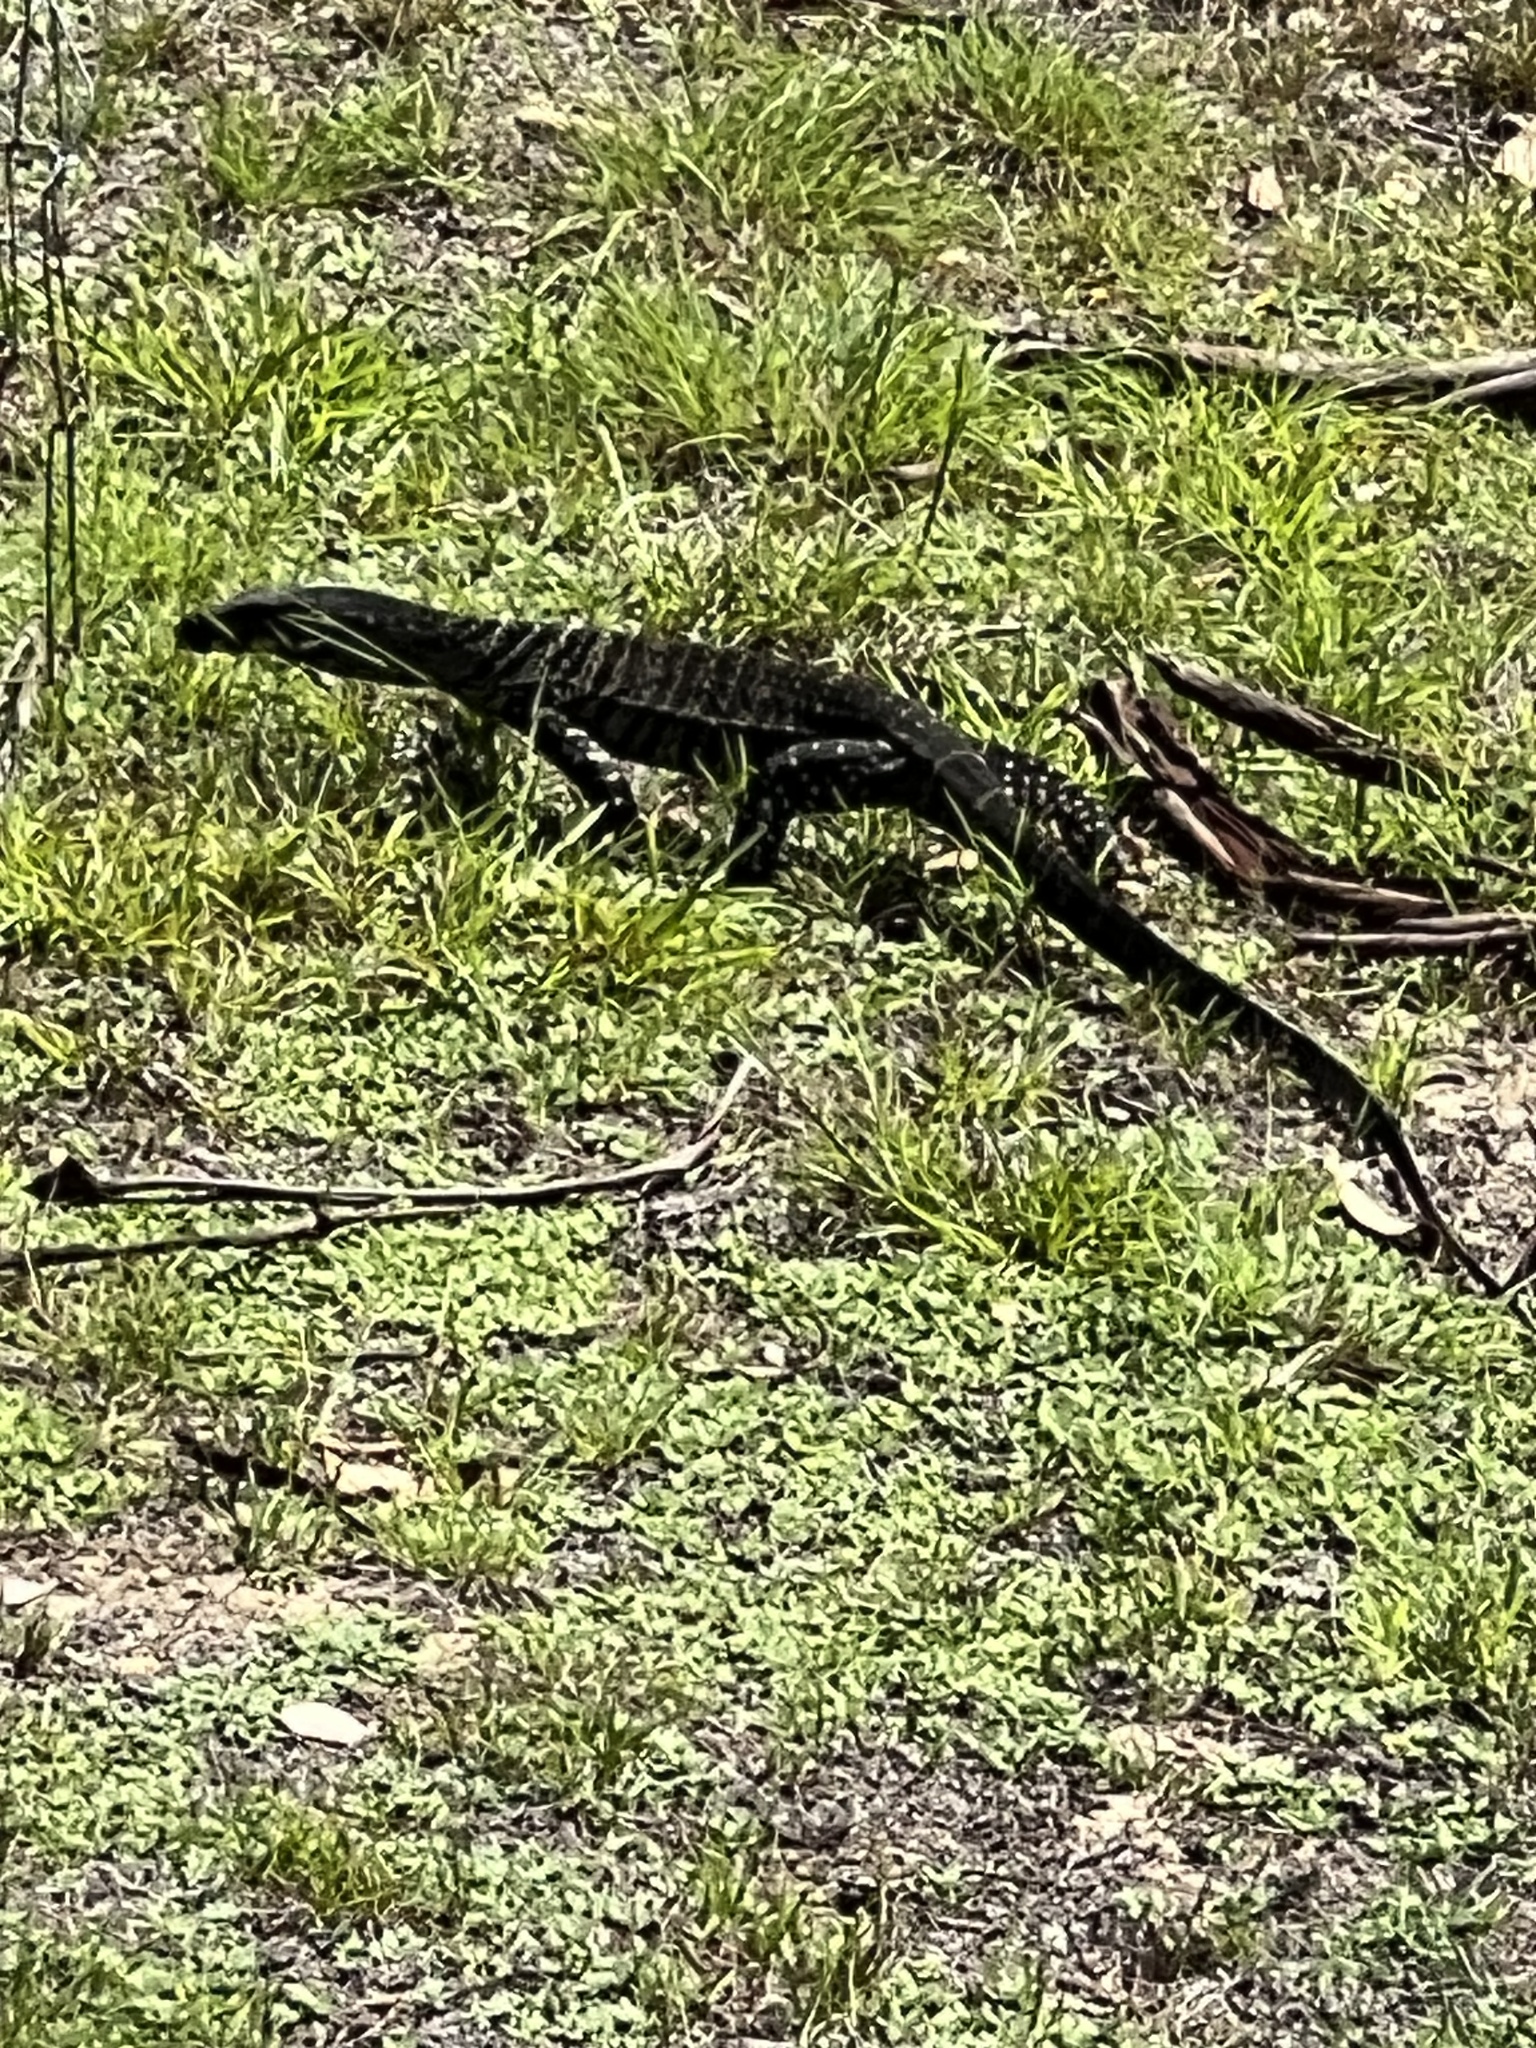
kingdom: Animalia
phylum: Chordata
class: Squamata
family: Varanidae
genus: Varanus
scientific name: Varanus varius
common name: Lace monitor
